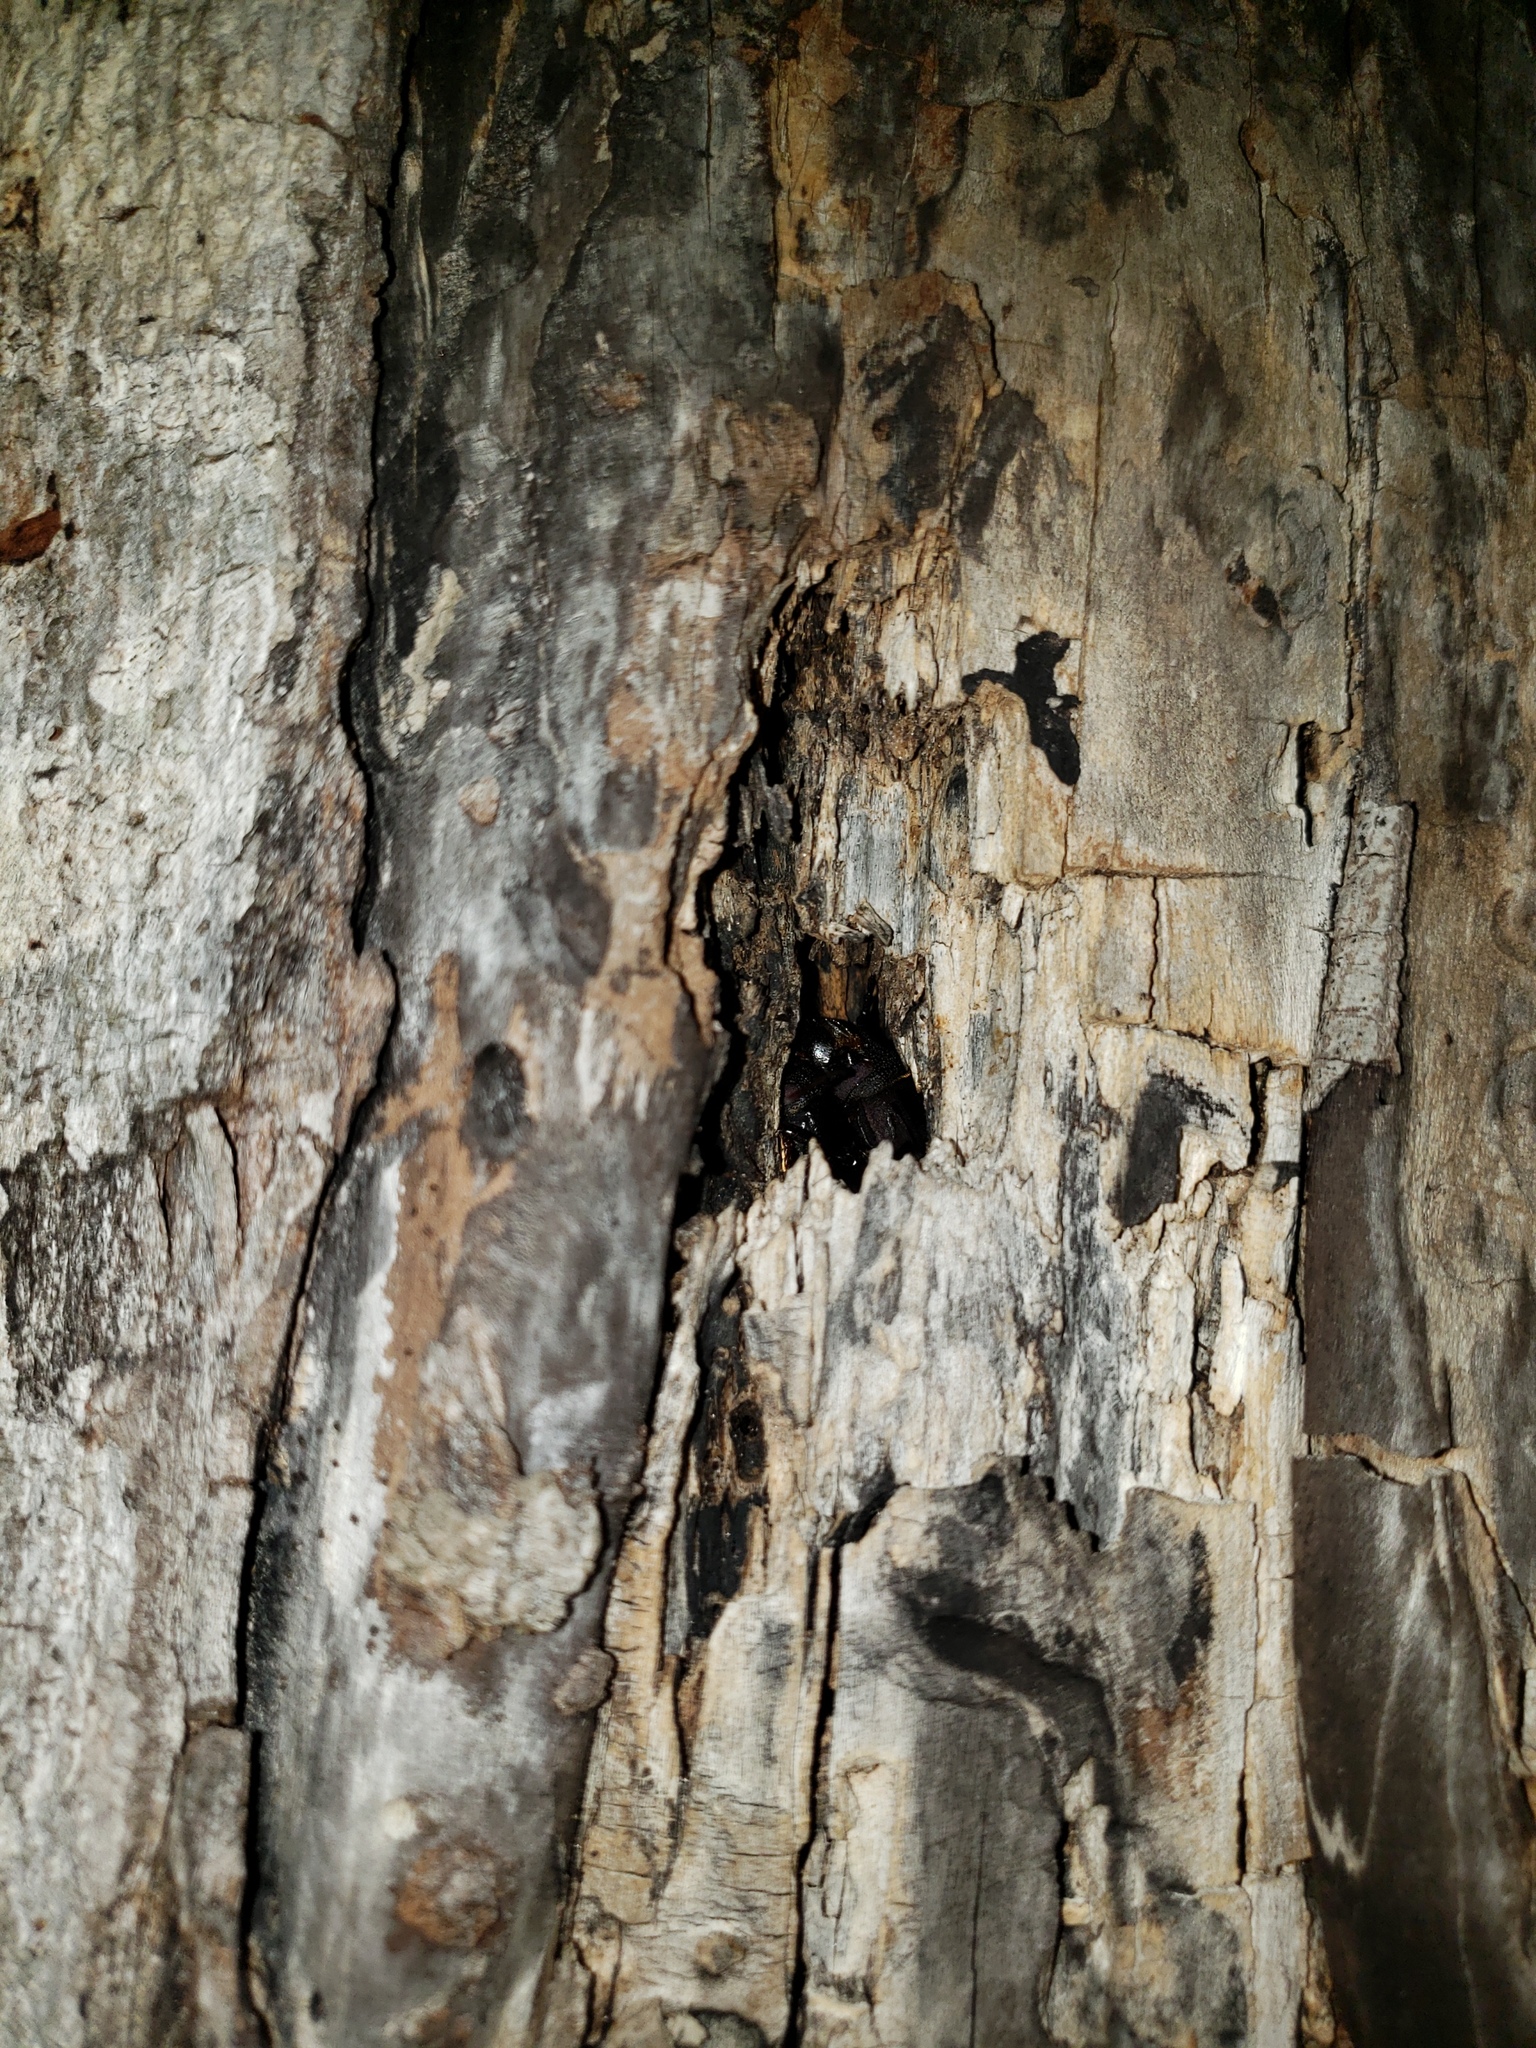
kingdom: Animalia
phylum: Arthropoda
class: Insecta
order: Coleoptera
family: Cerambycidae
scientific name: Cerambycidae
